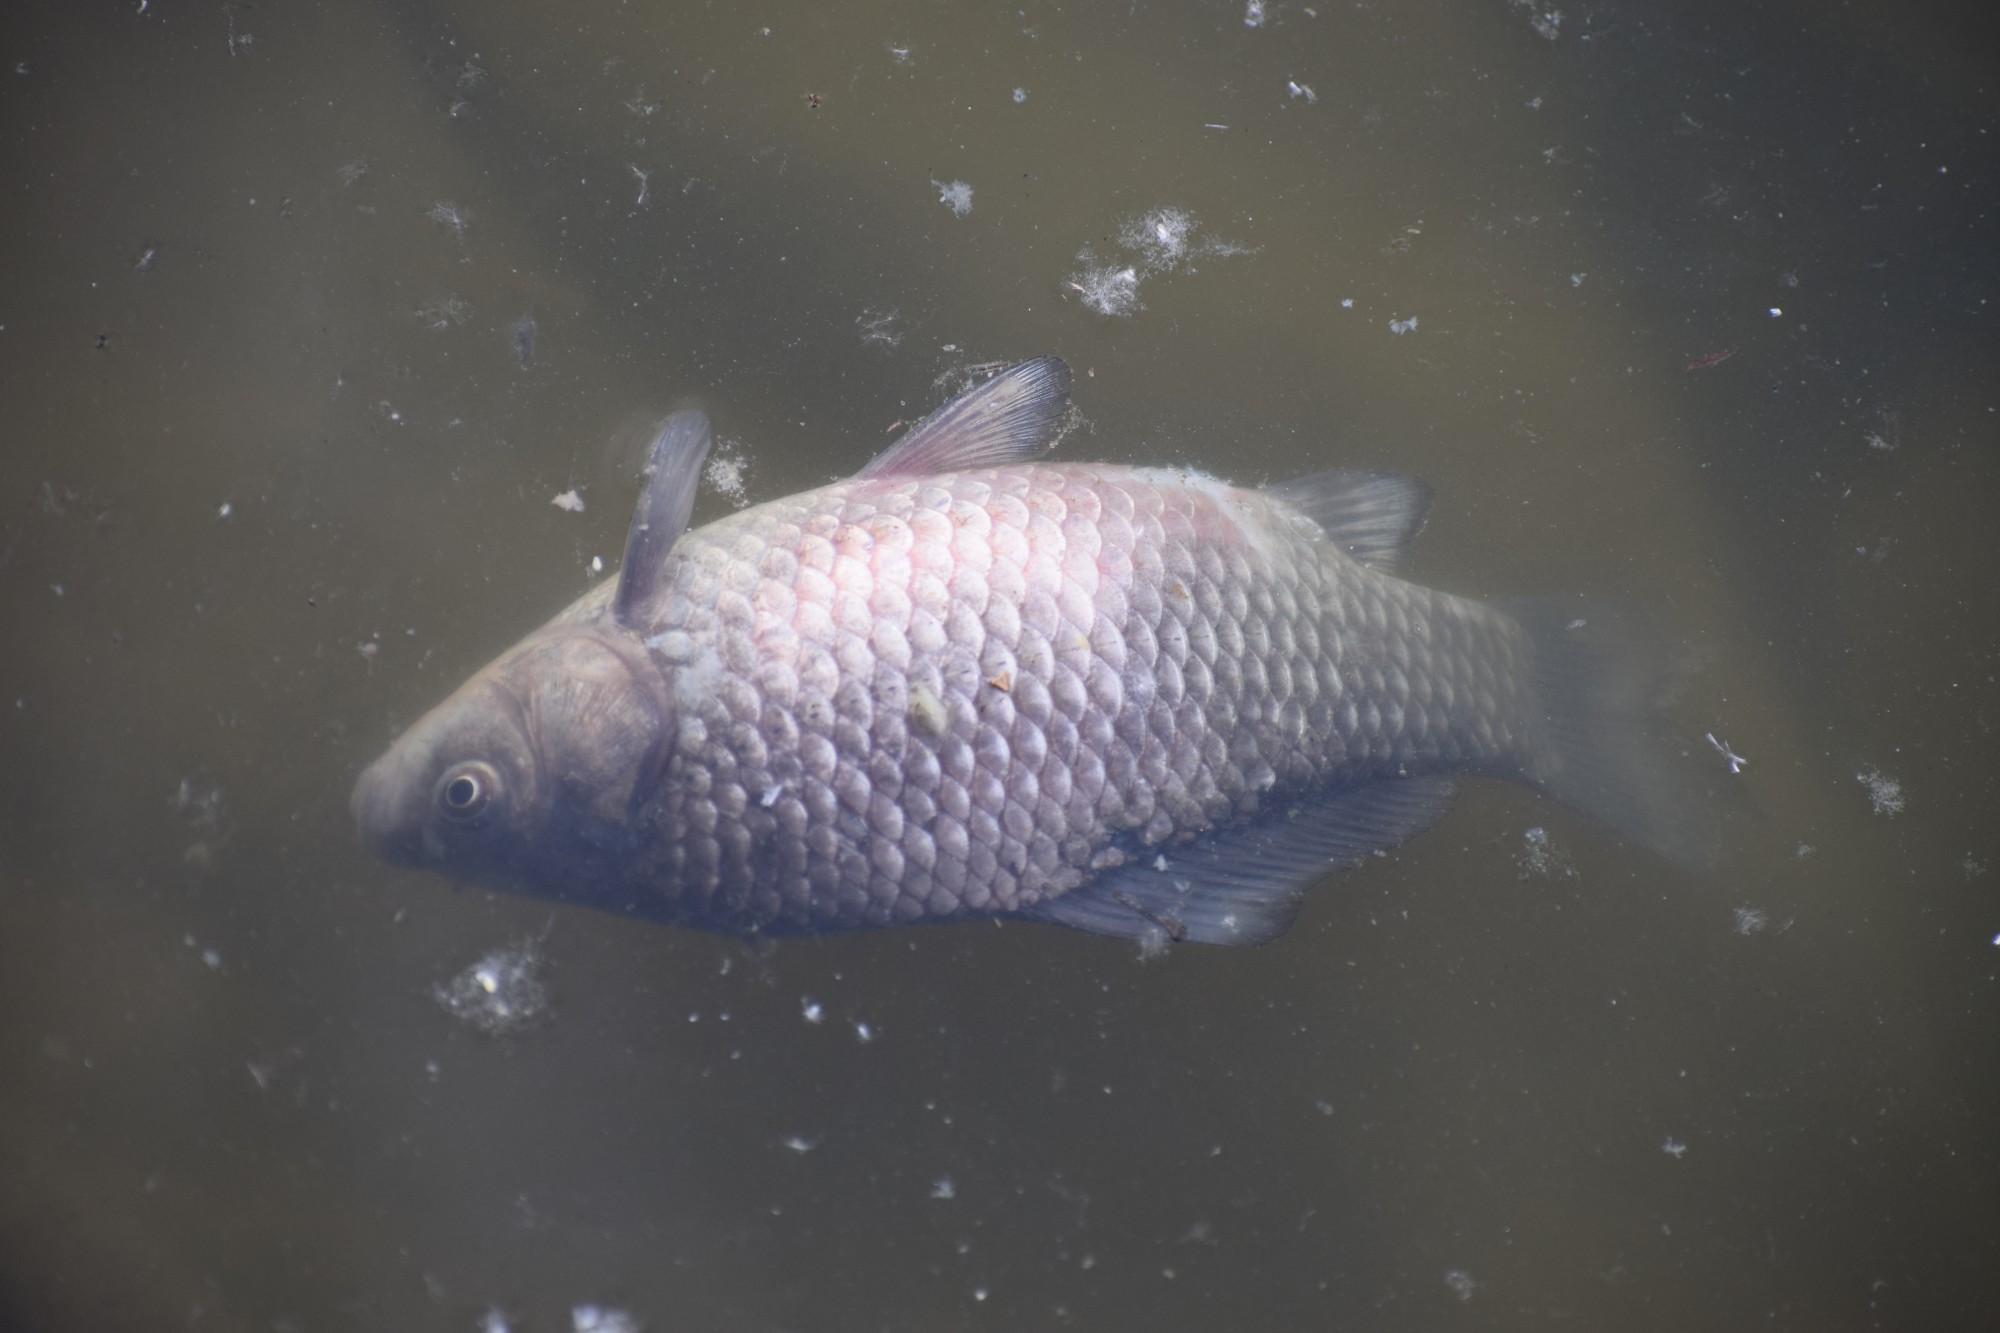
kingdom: Animalia
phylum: Chordata
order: Cypriniformes
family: Cyprinidae
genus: Carassius
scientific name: Carassius gibelio
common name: Prussian carp
